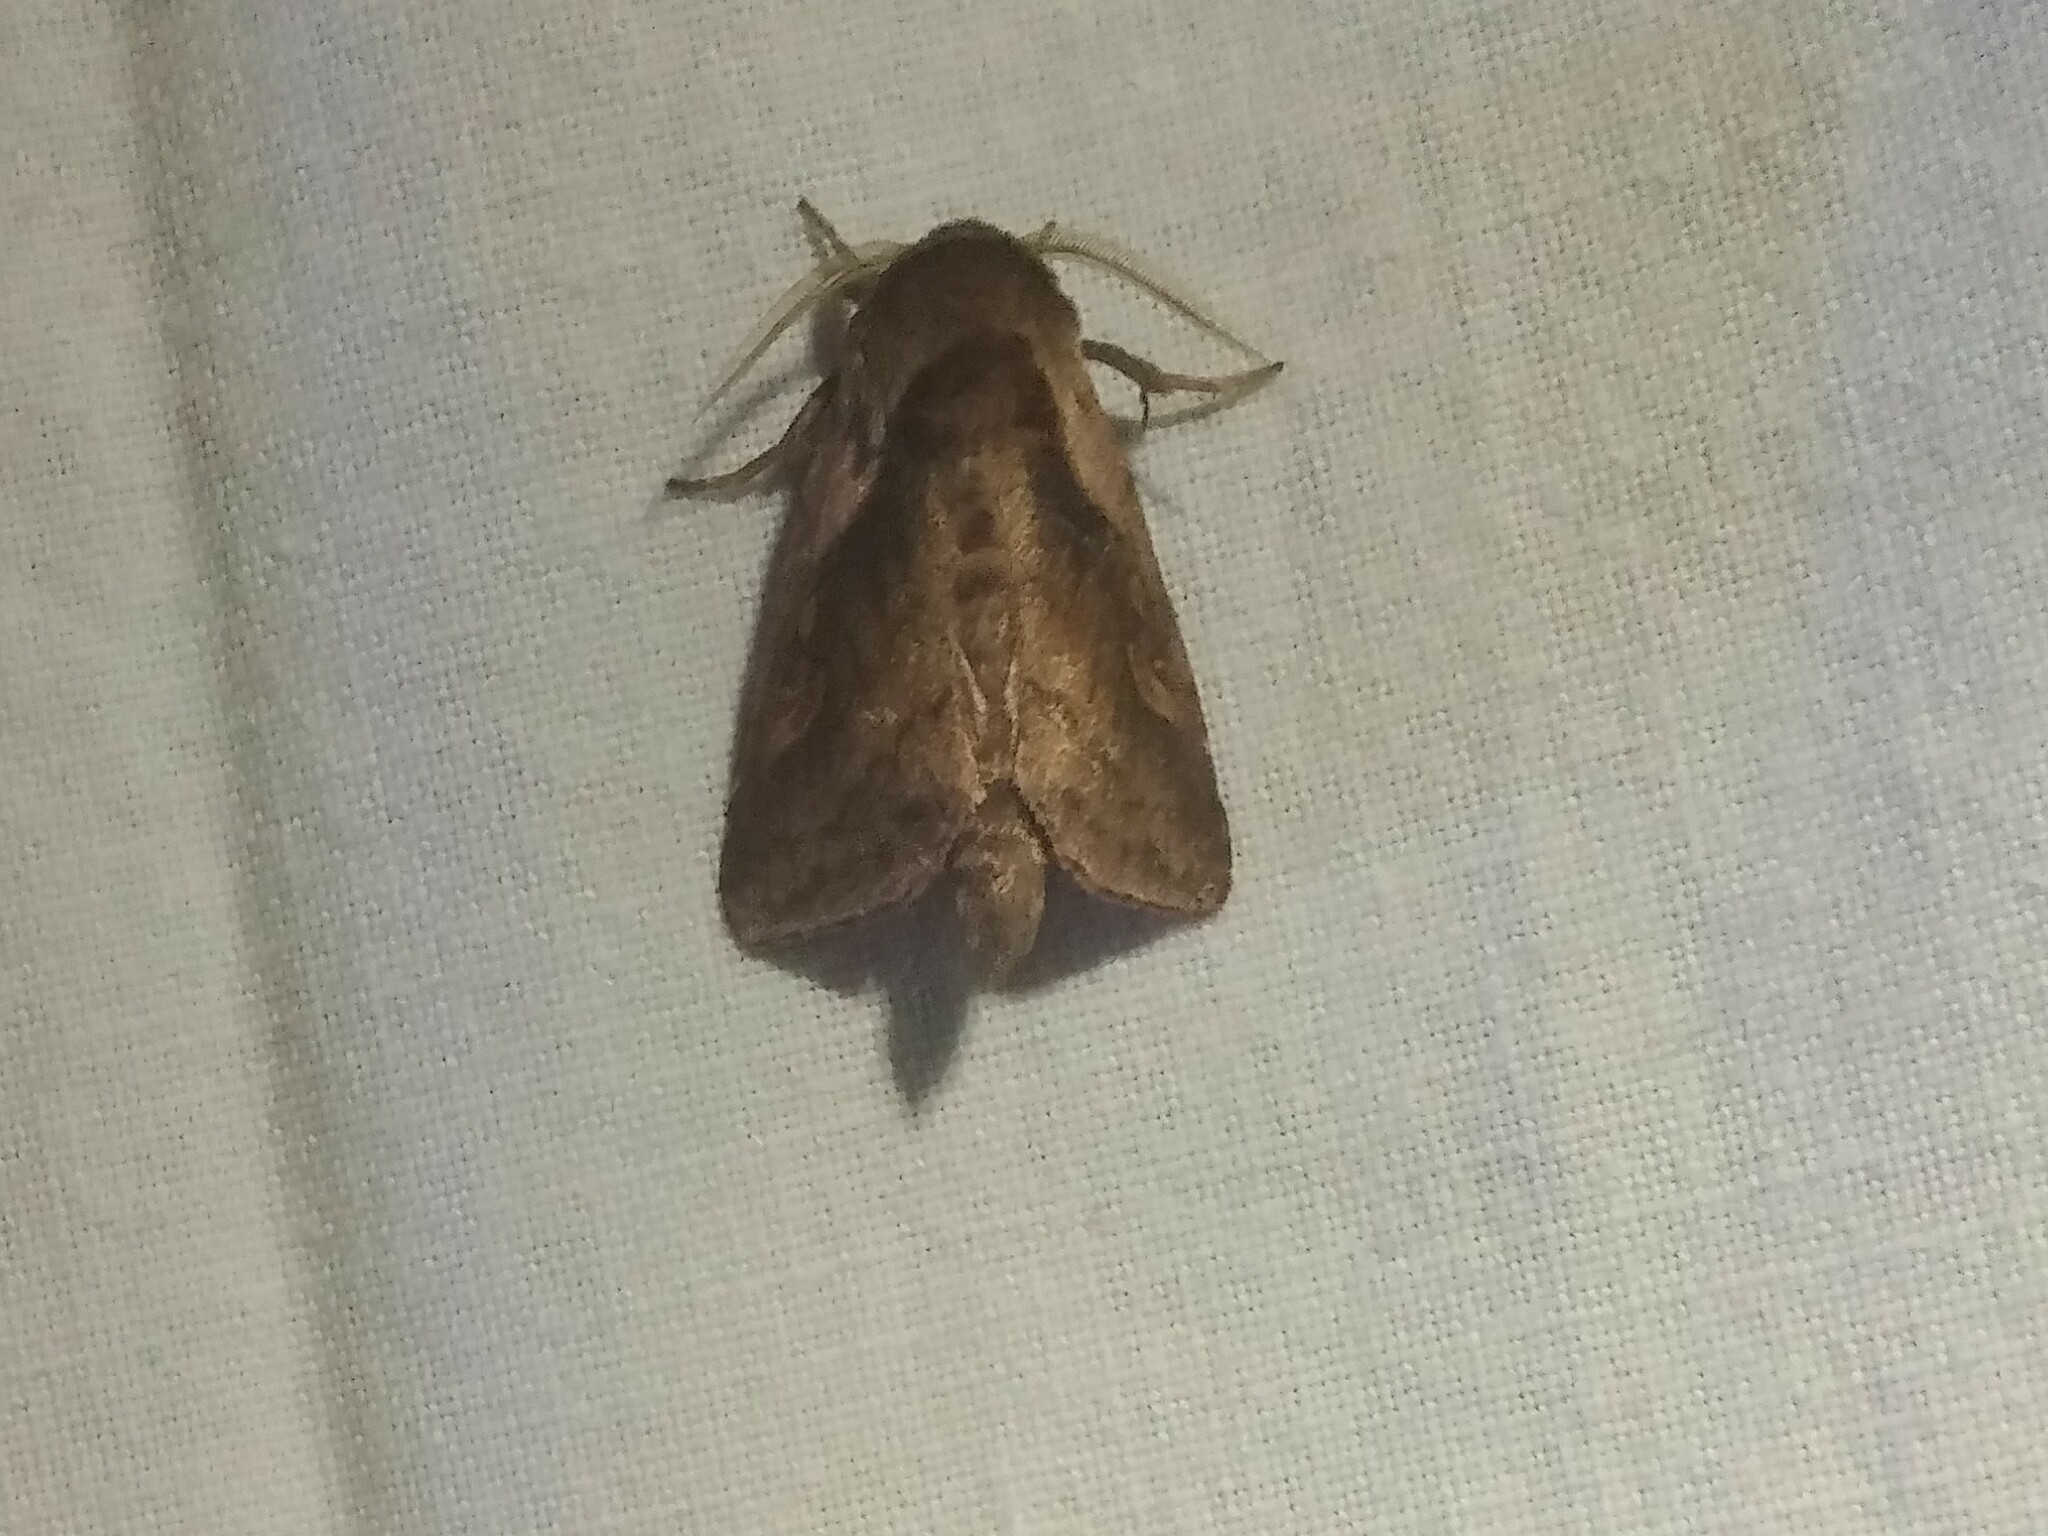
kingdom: Animalia
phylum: Arthropoda
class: Insecta
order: Lepidoptera
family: Noctuidae
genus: Bellura
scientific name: Bellura densa
